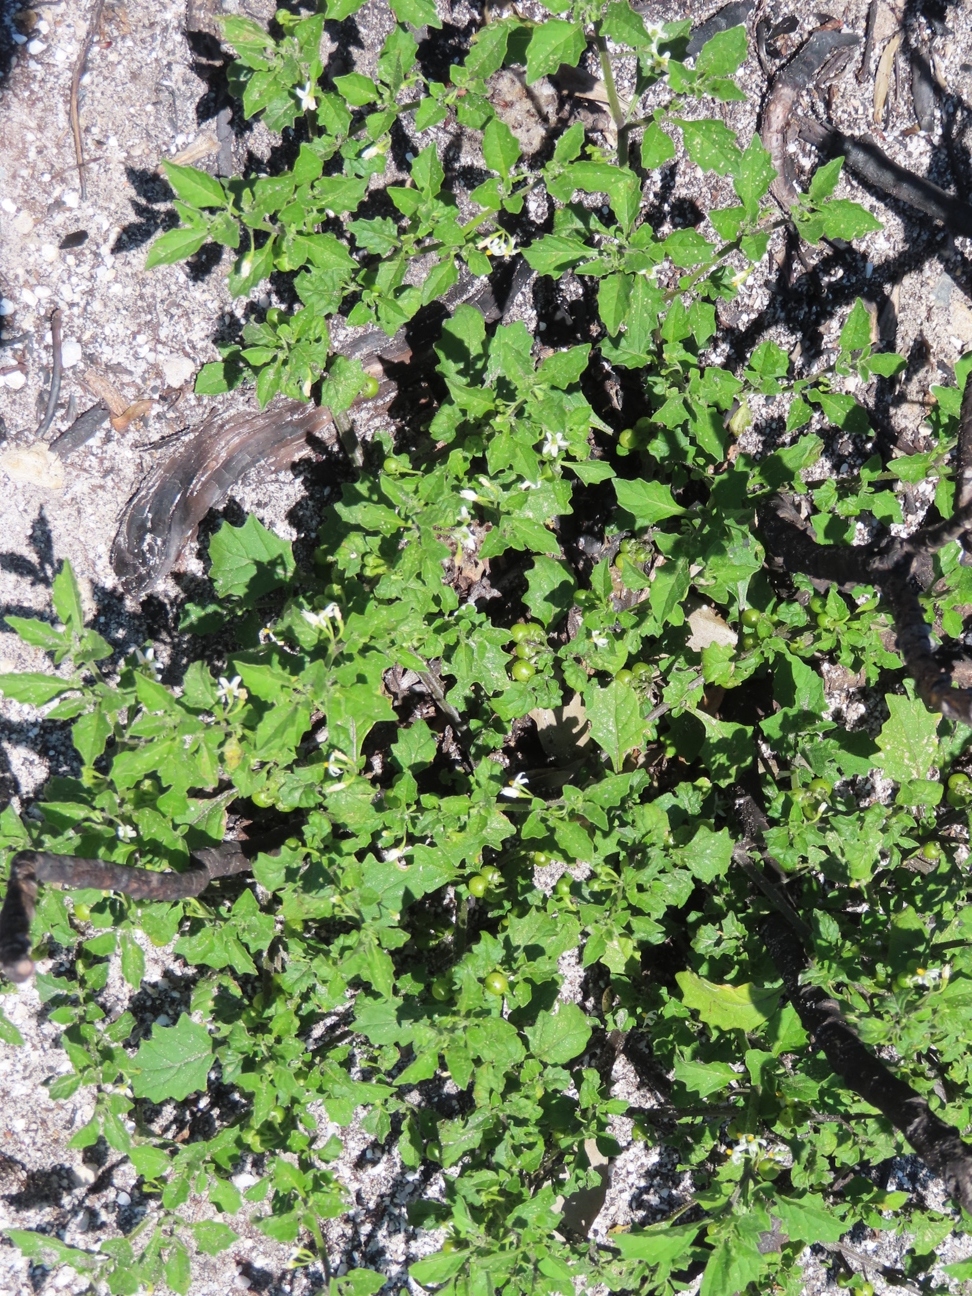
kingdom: Plantae
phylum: Tracheophyta
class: Magnoliopsida
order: Solanales
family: Solanaceae
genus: Solanum
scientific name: Solanum retroflexum
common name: Wonderberry
